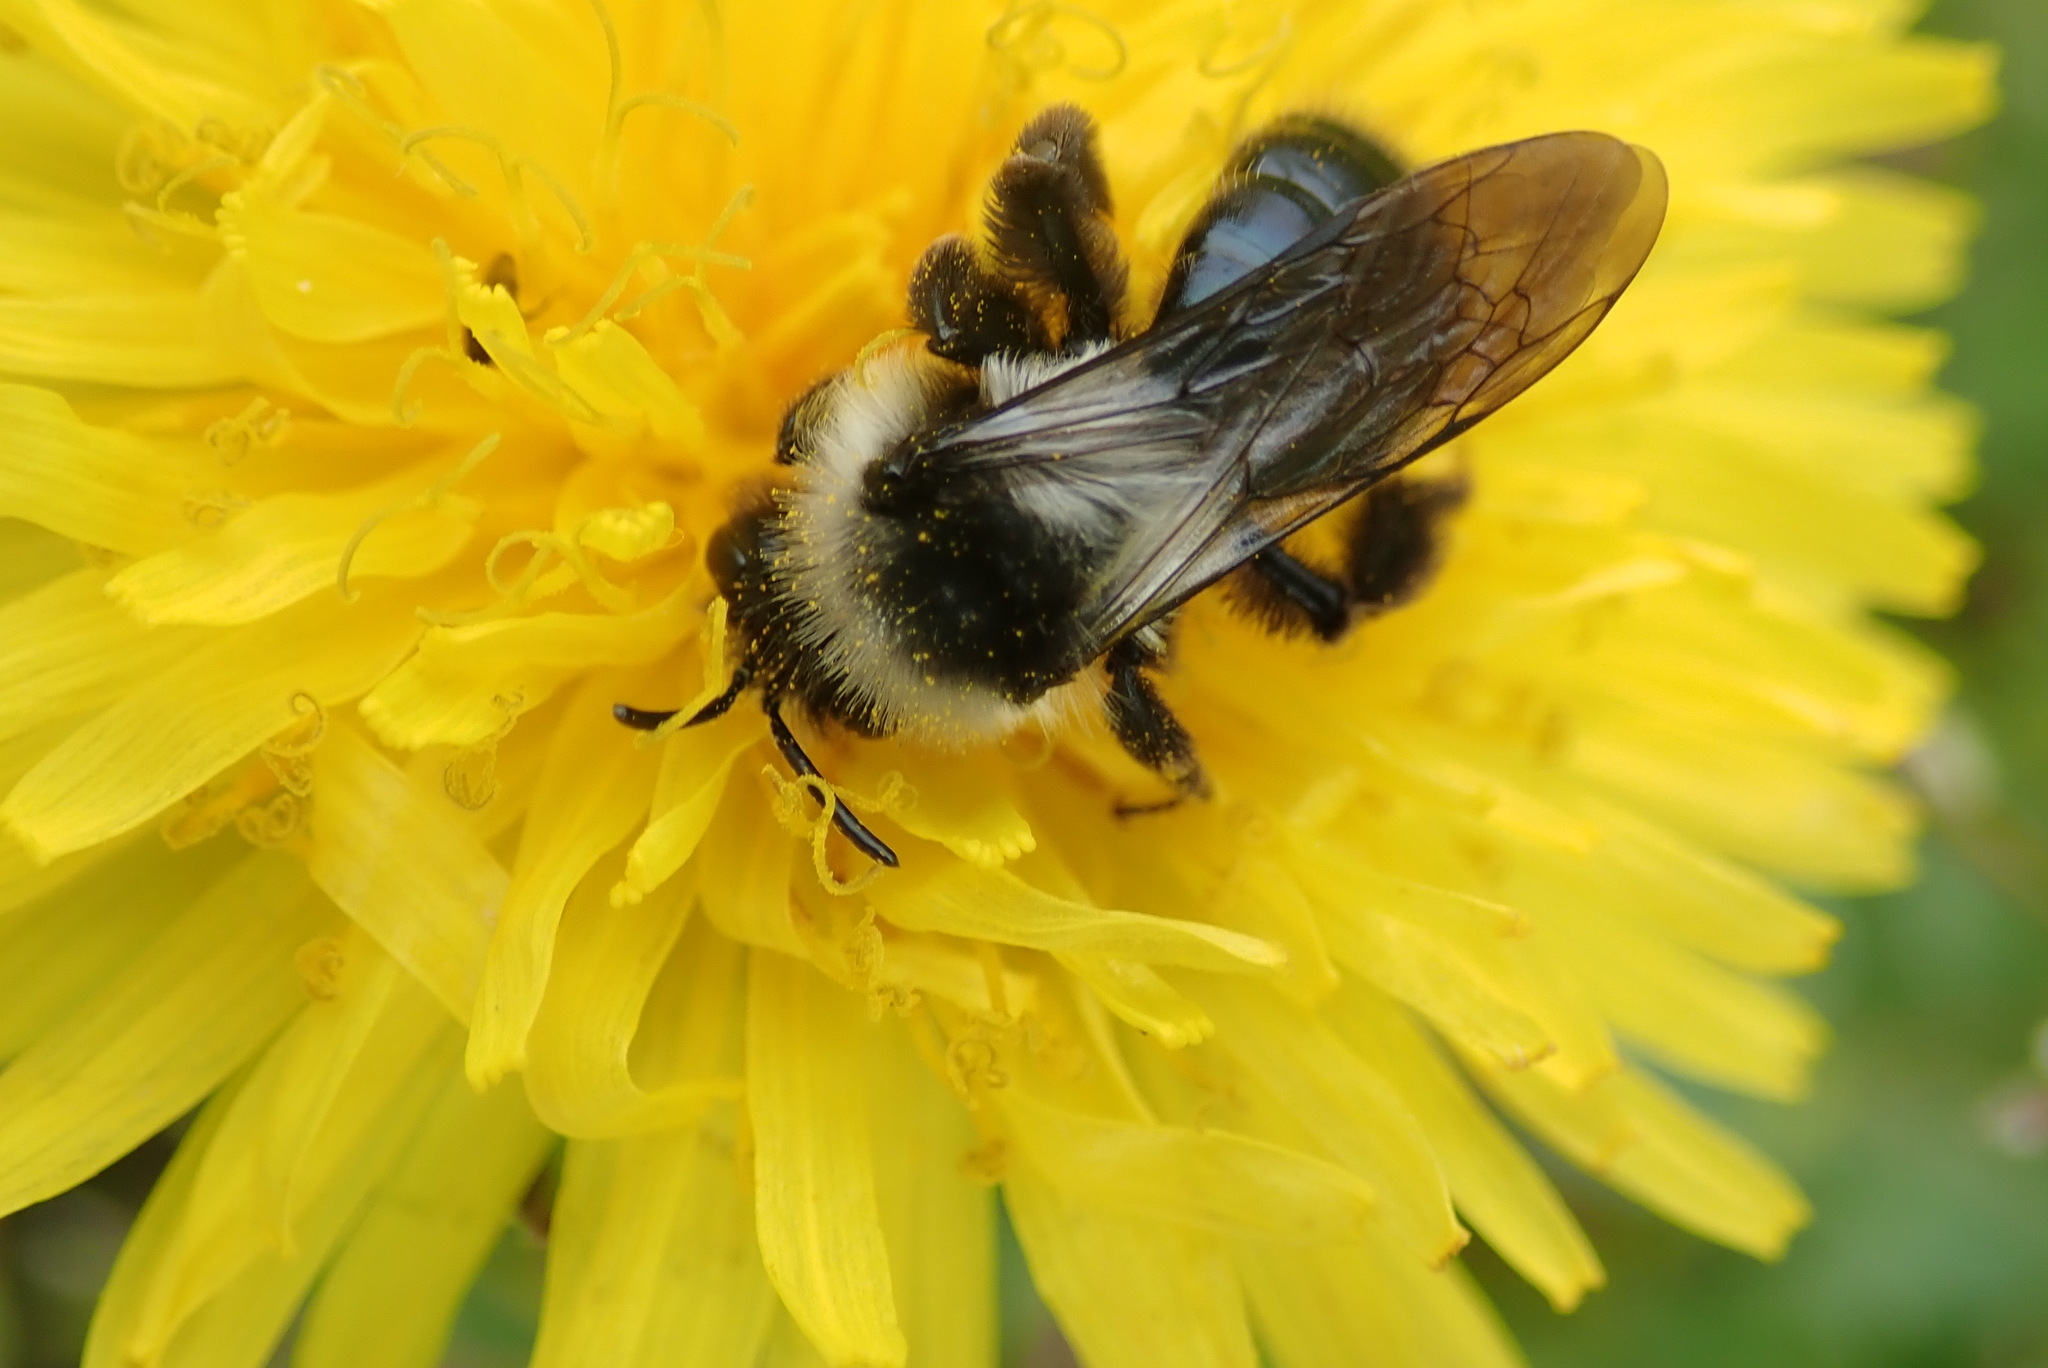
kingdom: Animalia
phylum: Arthropoda
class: Insecta
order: Hymenoptera
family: Andrenidae
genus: Andrena
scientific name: Andrena cineraria
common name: Ashy mining bee
